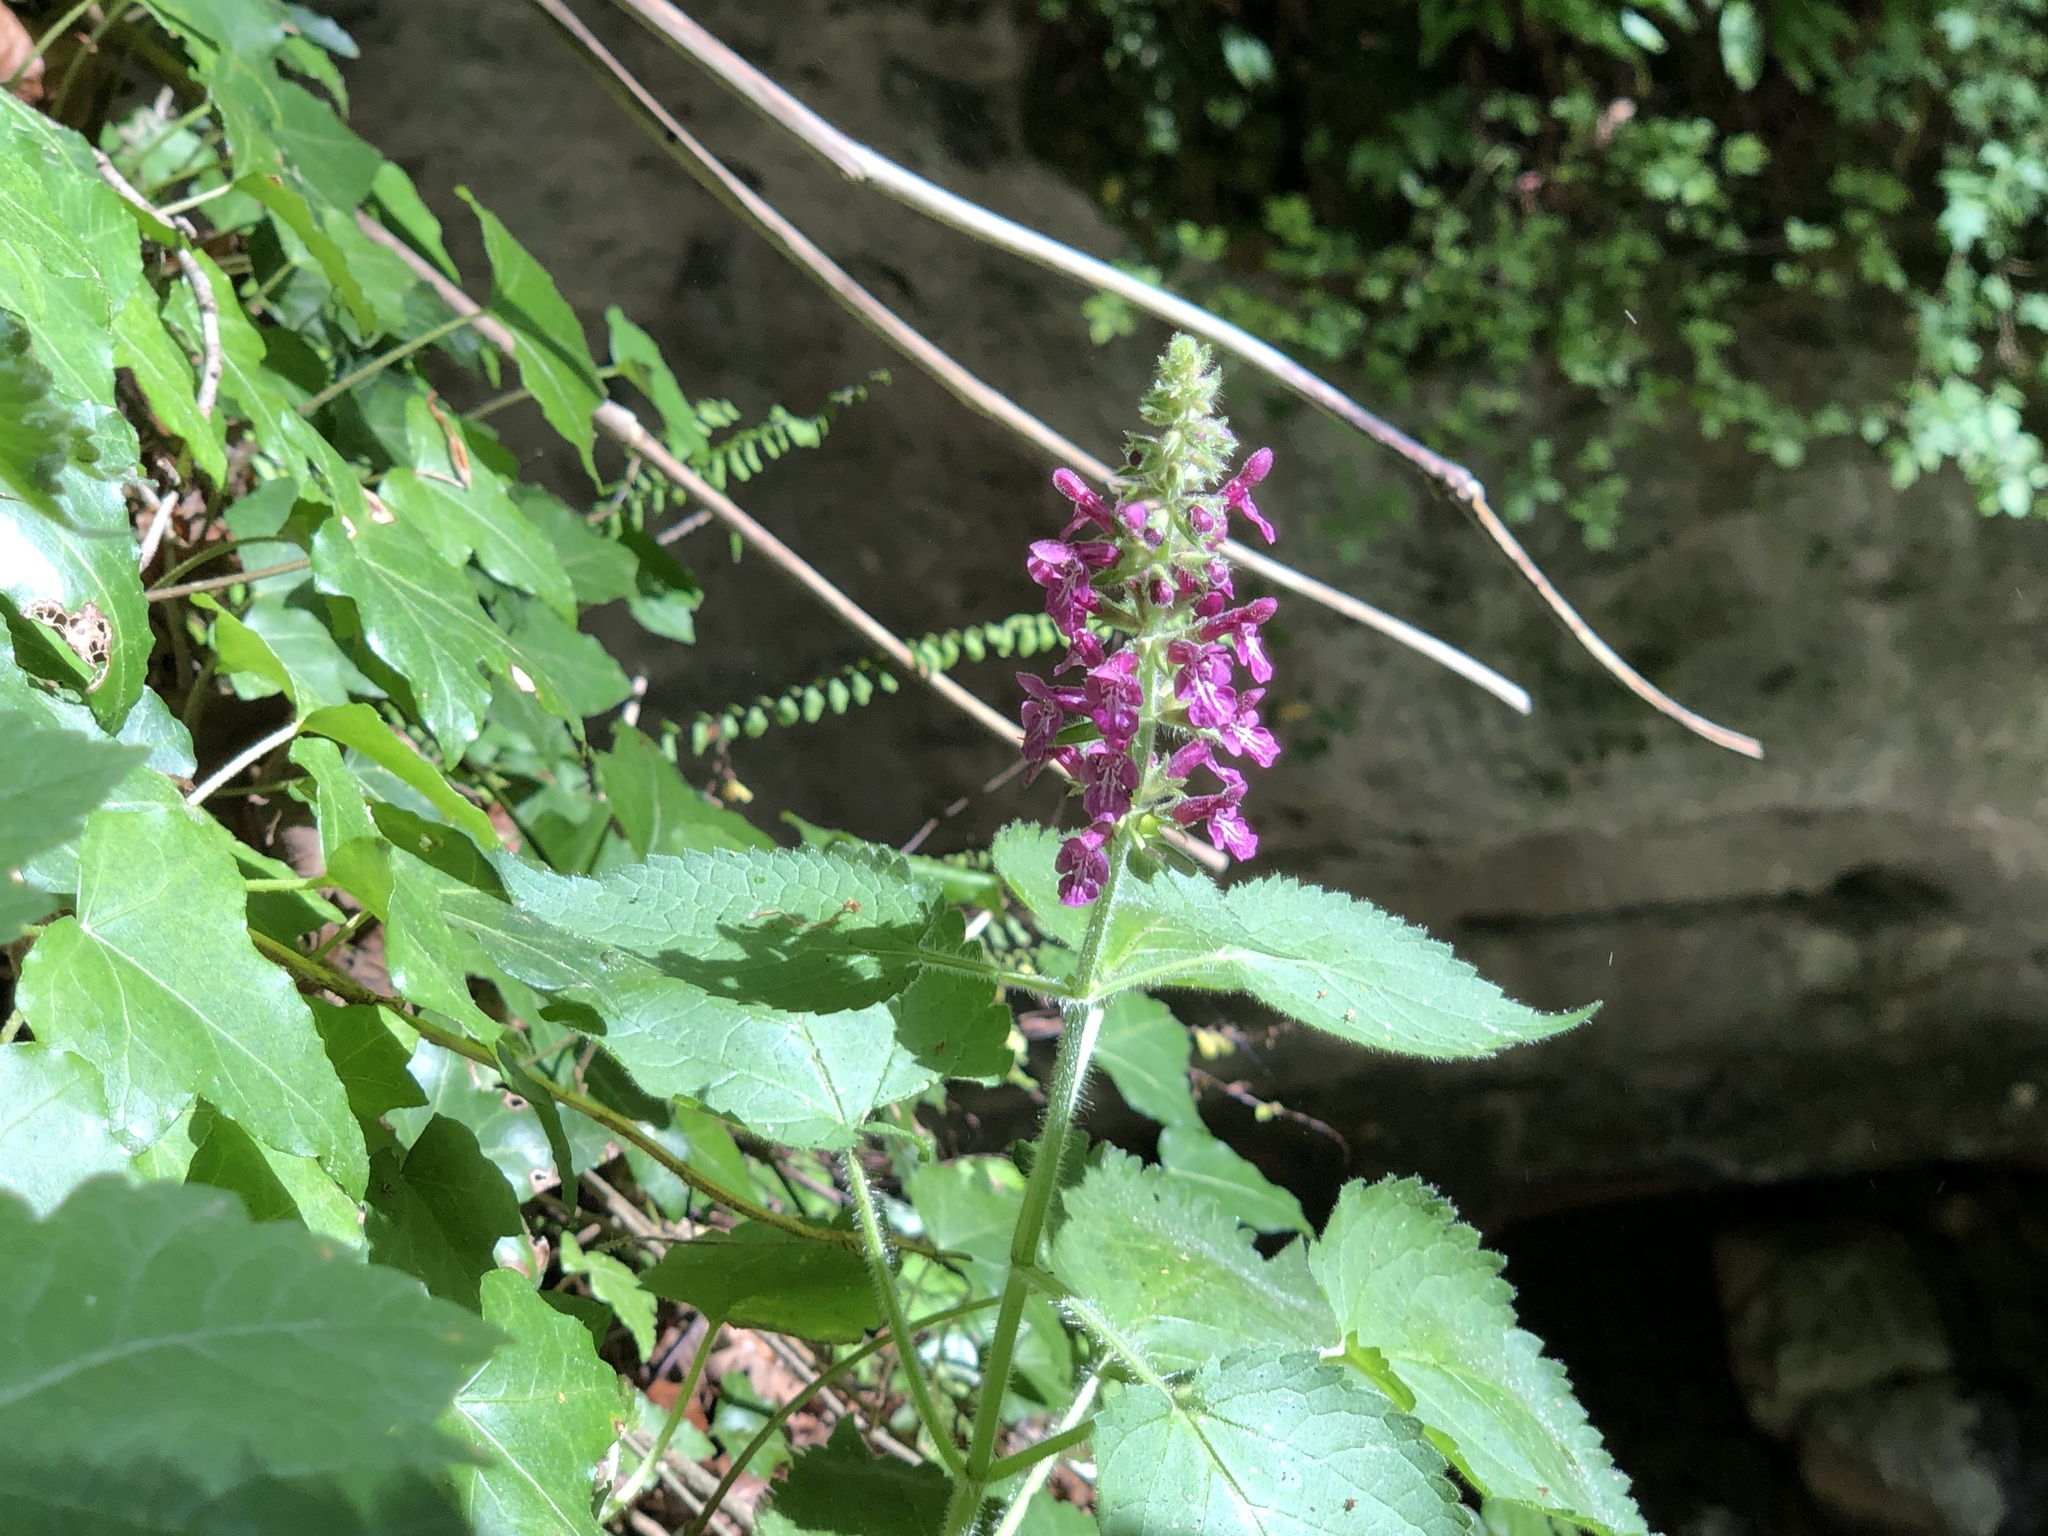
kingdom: Plantae
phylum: Tracheophyta
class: Magnoliopsida
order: Lamiales
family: Lamiaceae
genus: Stachys
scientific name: Stachys sylvatica
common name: Hedge woundwort
